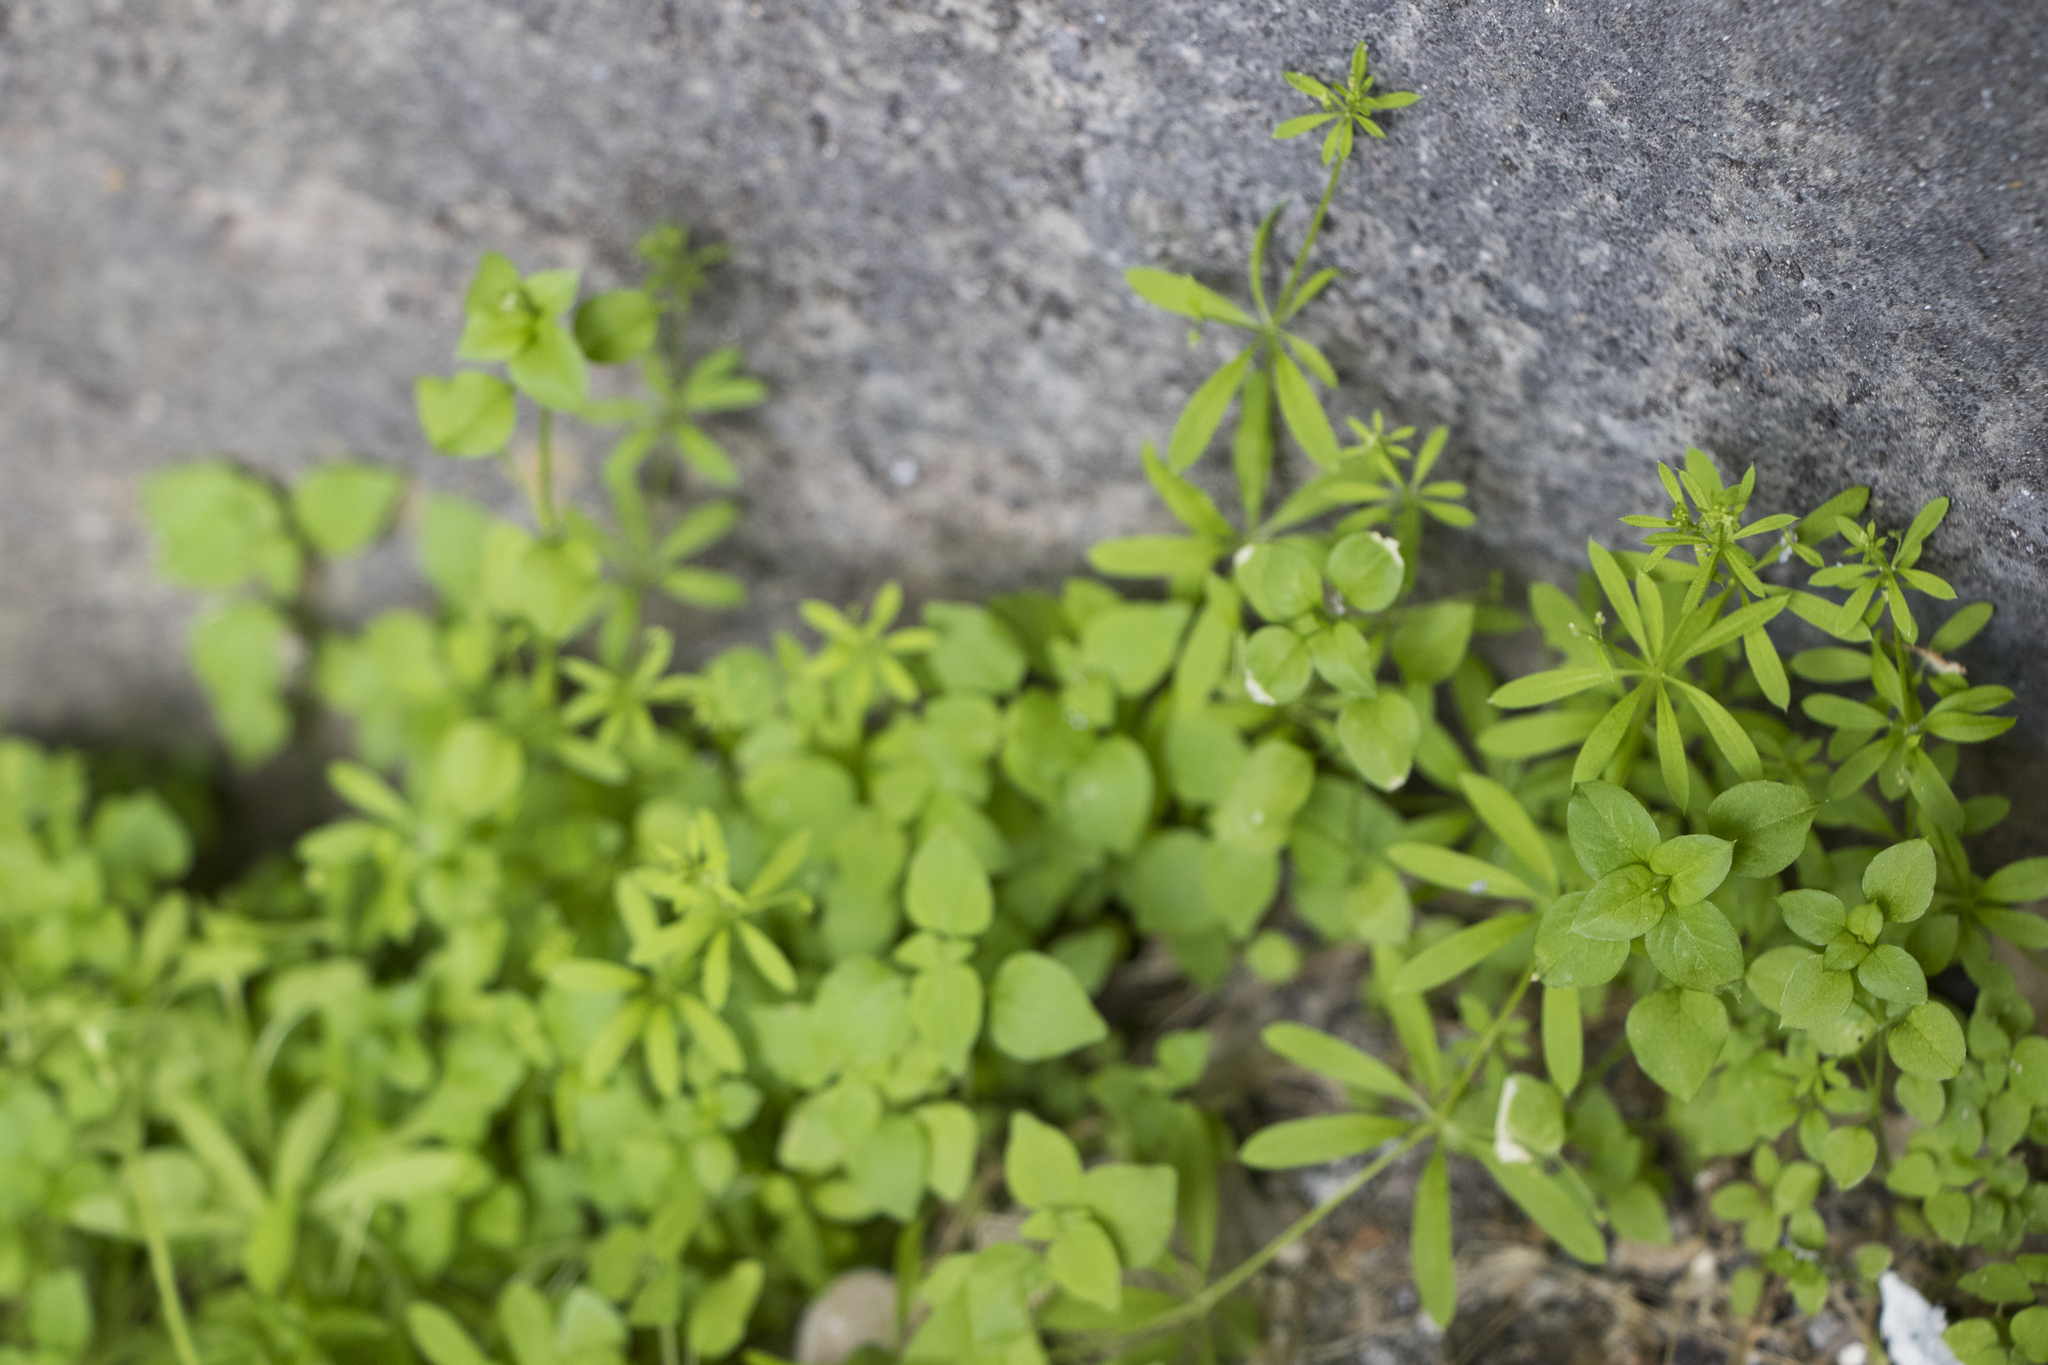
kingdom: Plantae
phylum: Tracheophyta
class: Magnoliopsida
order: Gentianales
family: Rubiaceae
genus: Galium
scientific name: Galium spurium
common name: False cleavers
